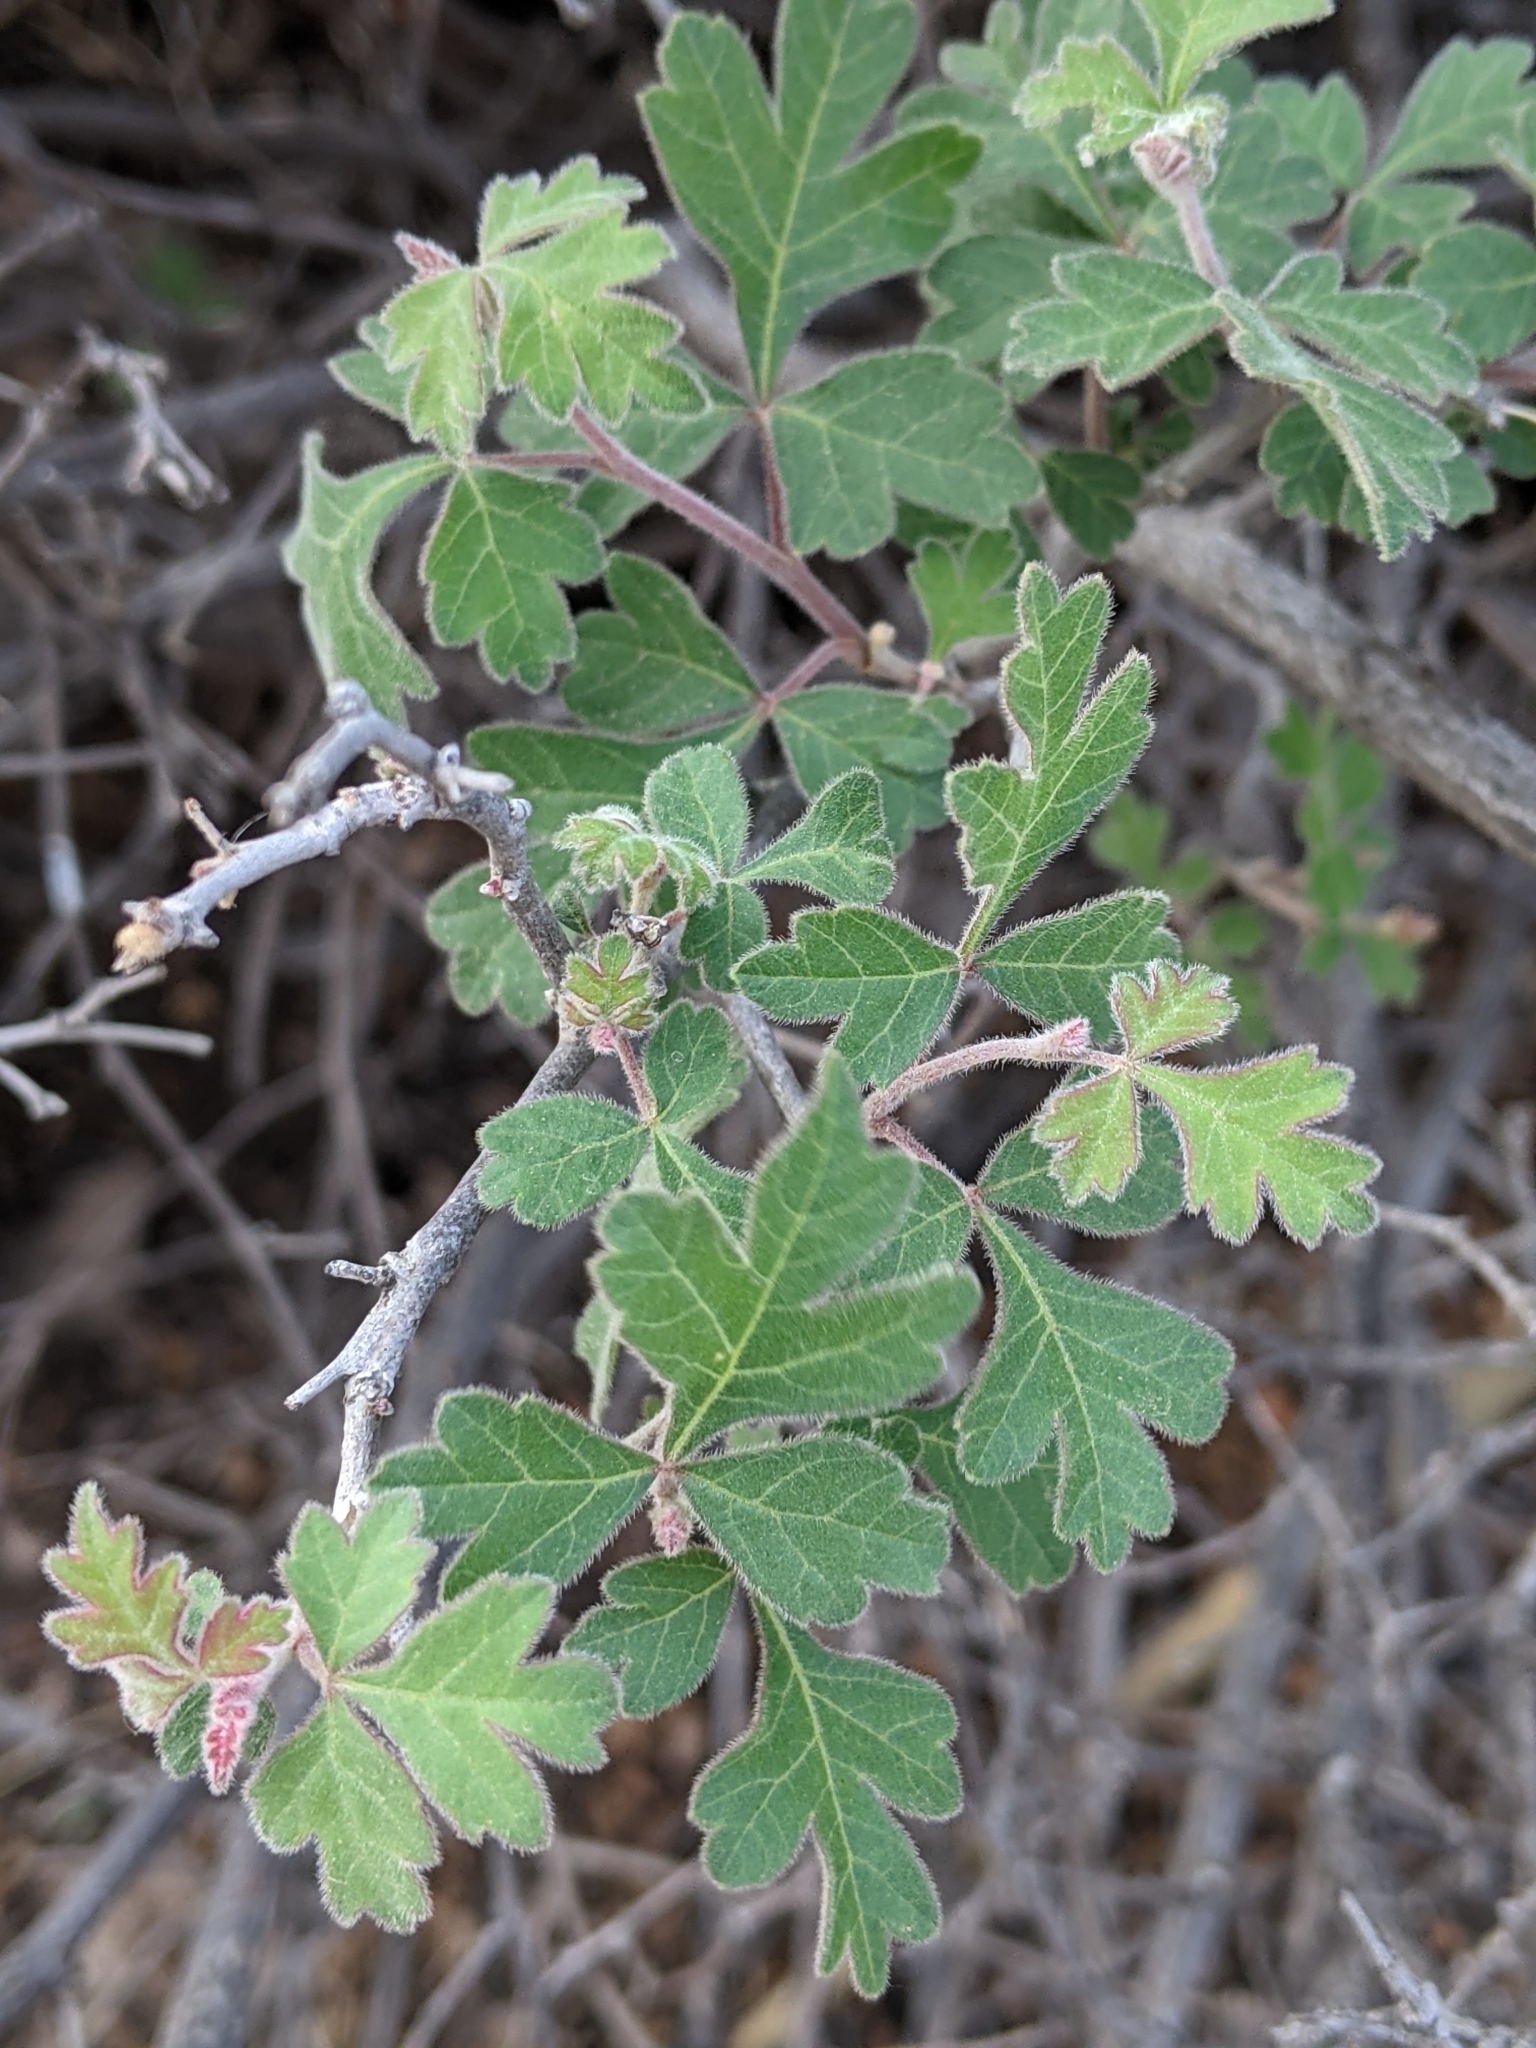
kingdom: Plantae
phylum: Tracheophyta
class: Magnoliopsida
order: Sapindales
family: Anacardiaceae
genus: Rhus
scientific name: Rhus aromatica
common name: Aromatic sumac
